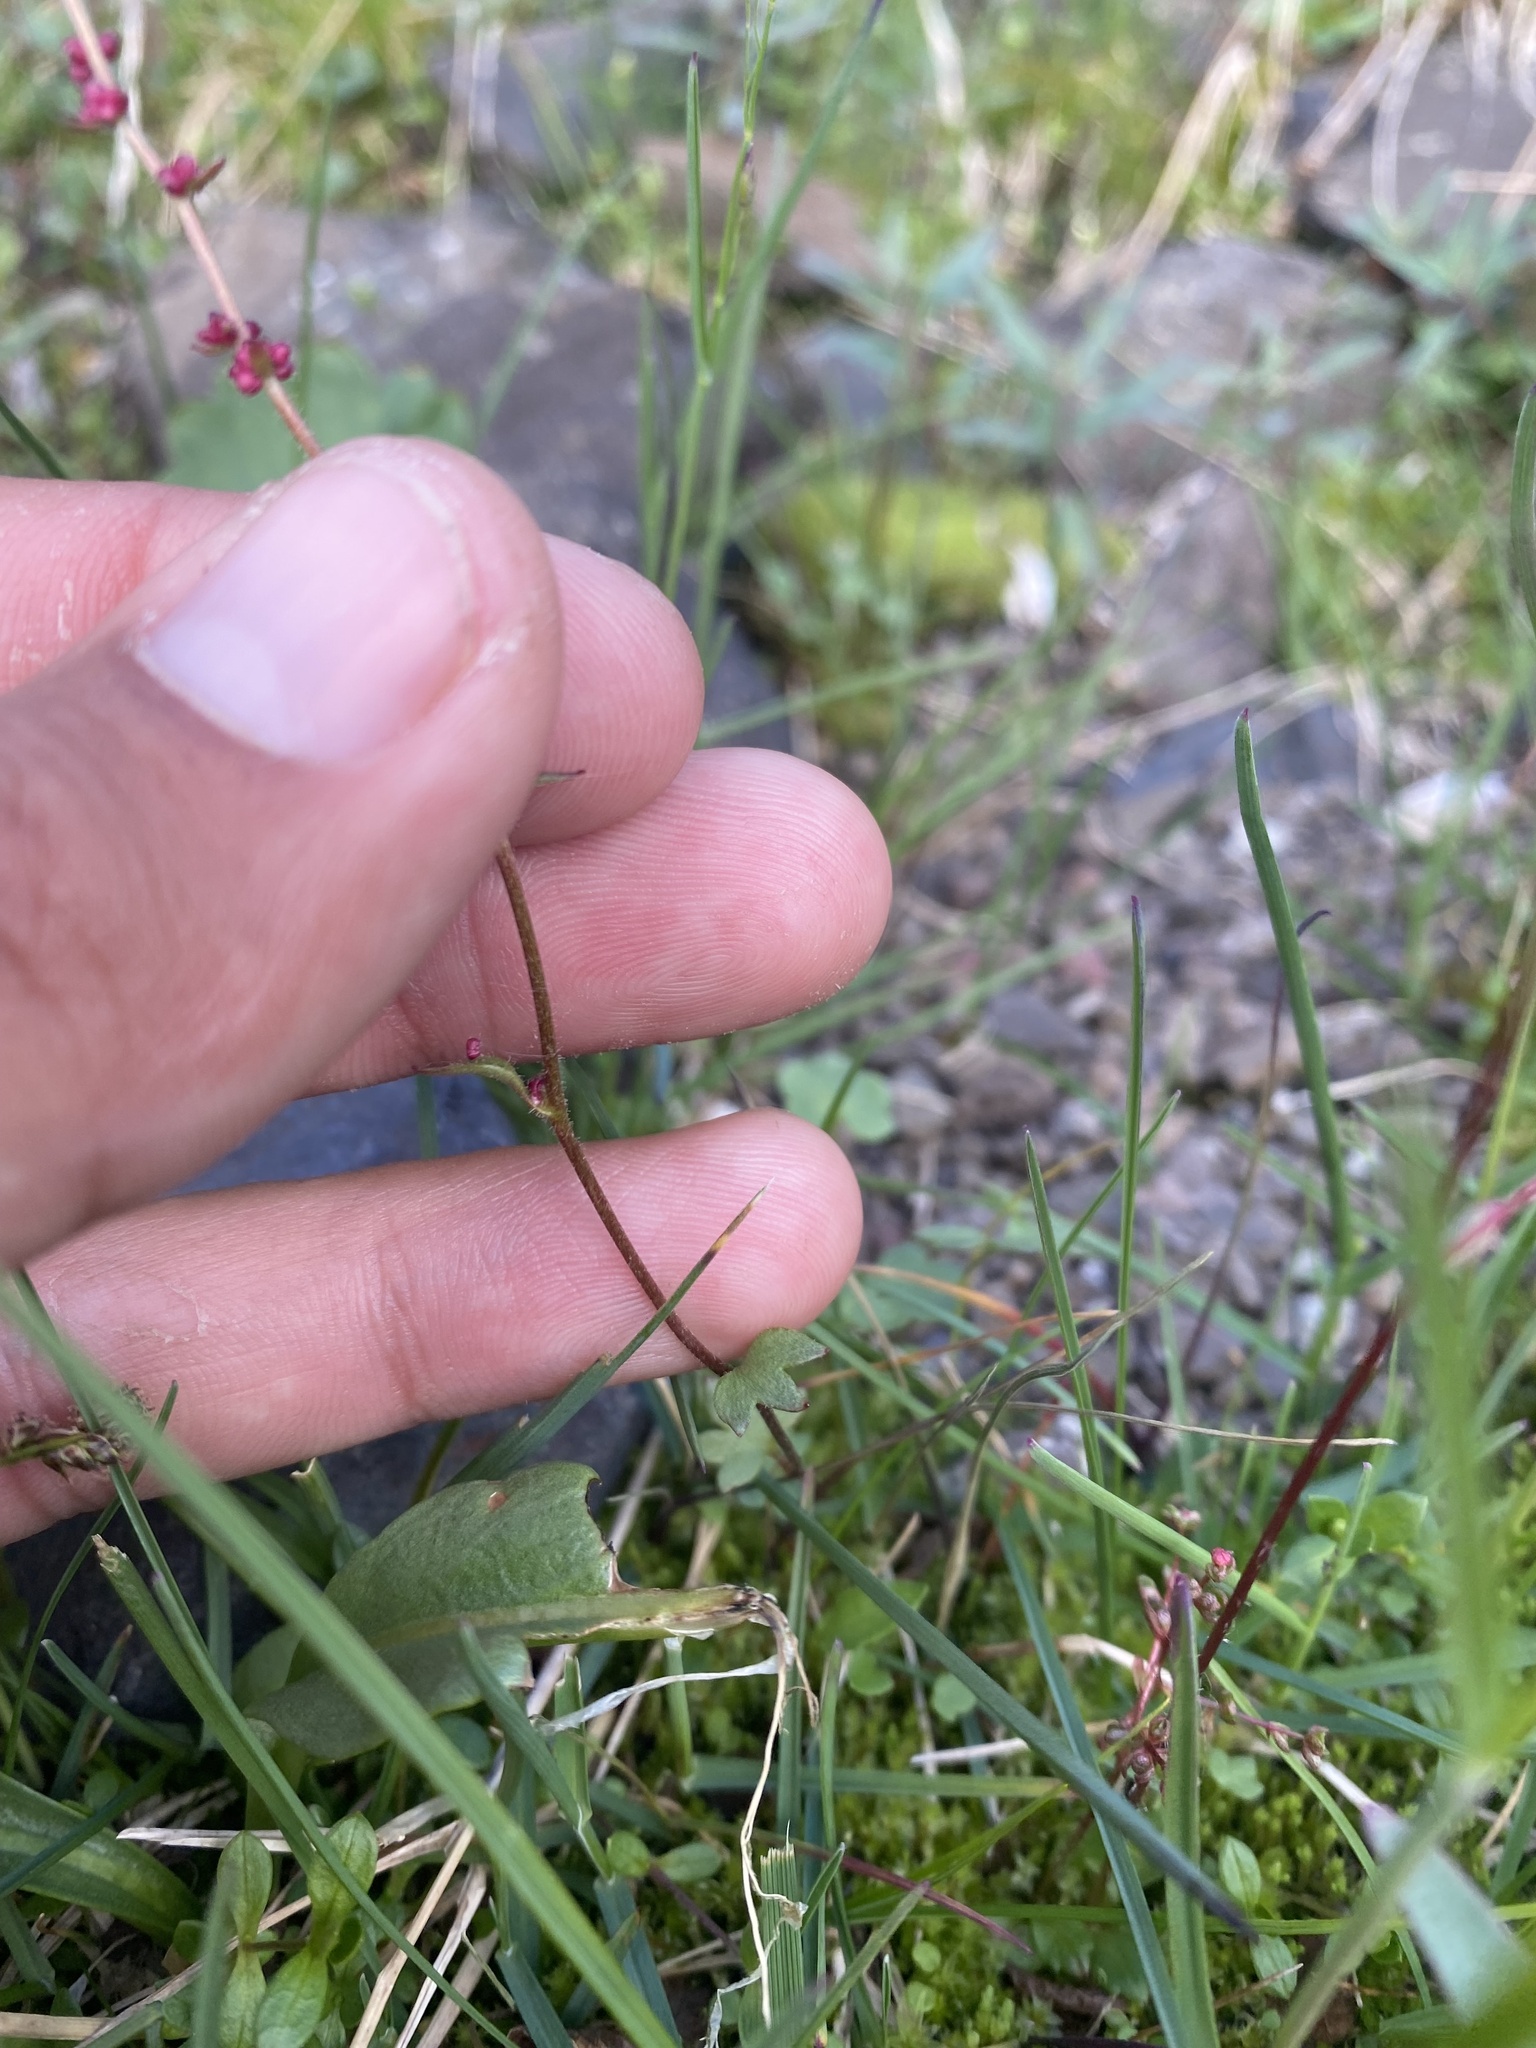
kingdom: Plantae
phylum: Tracheophyta
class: Magnoliopsida
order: Saxifragales
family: Saxifragaceae
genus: Saxifraga
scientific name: Saxifraga cernua
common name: Drooping saxifrage
